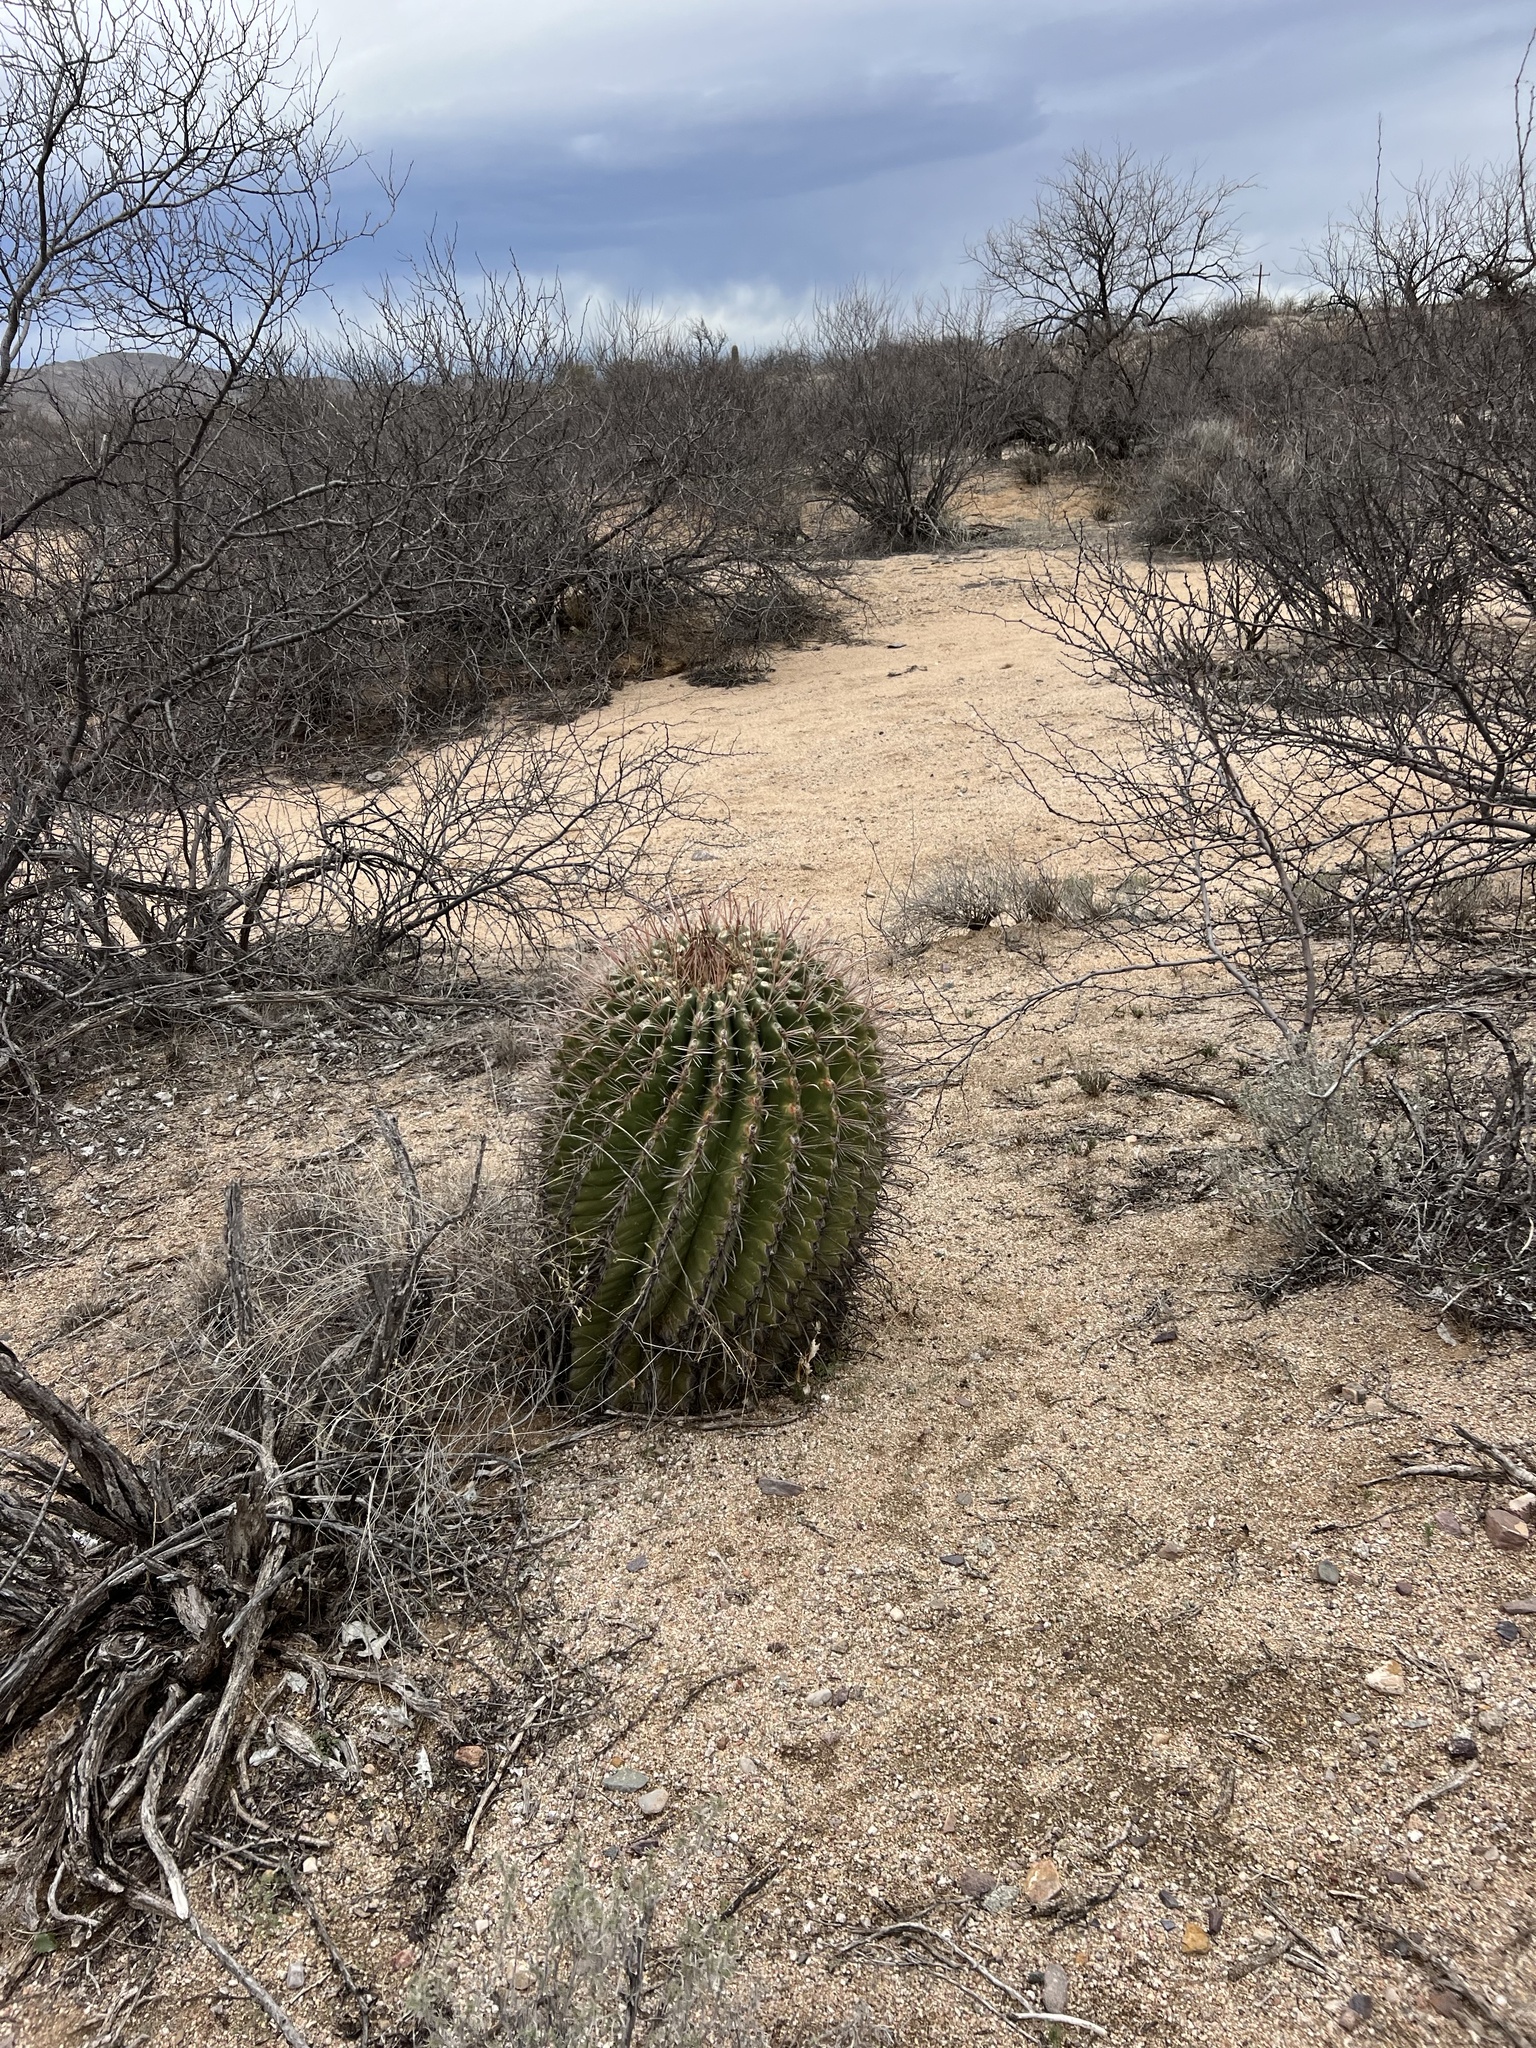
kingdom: Plantae
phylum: Tracheophyta
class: Magnoliopsida
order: Caryophyllales
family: Cactaceae
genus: Ferocactus
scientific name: Ferocactus wislizeni
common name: Candy barrel cactus
